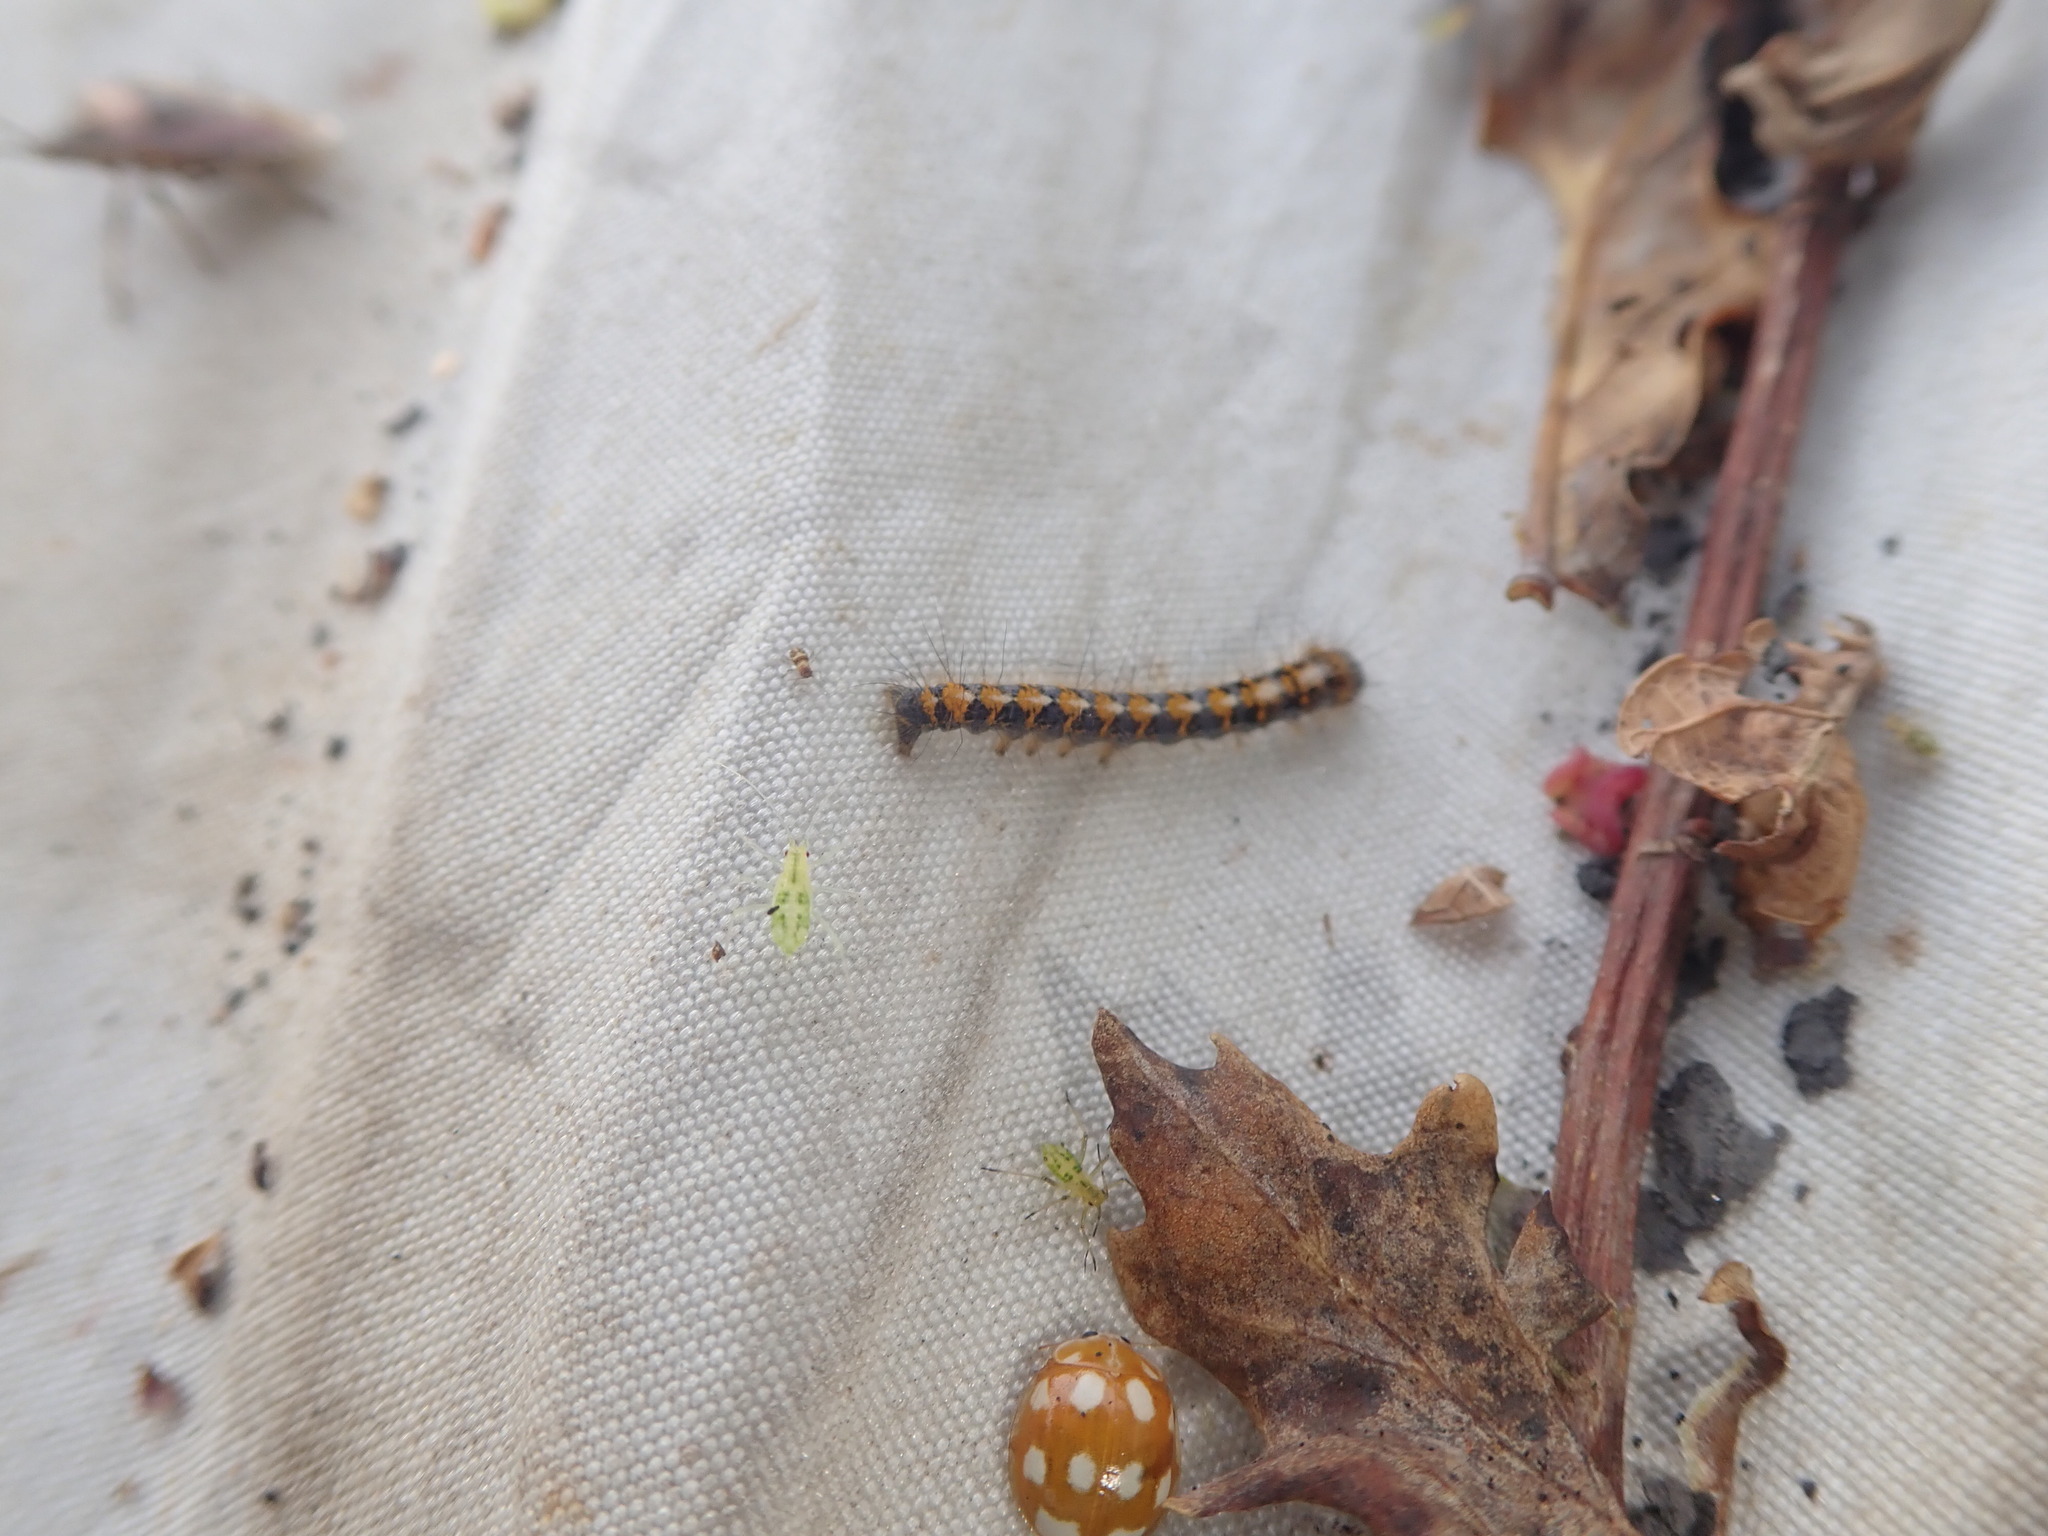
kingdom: Animalia
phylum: Arthropoda
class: Insecta
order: Coleoptera
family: Coccinellidae
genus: Calvia
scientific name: Calvia decemguttata
